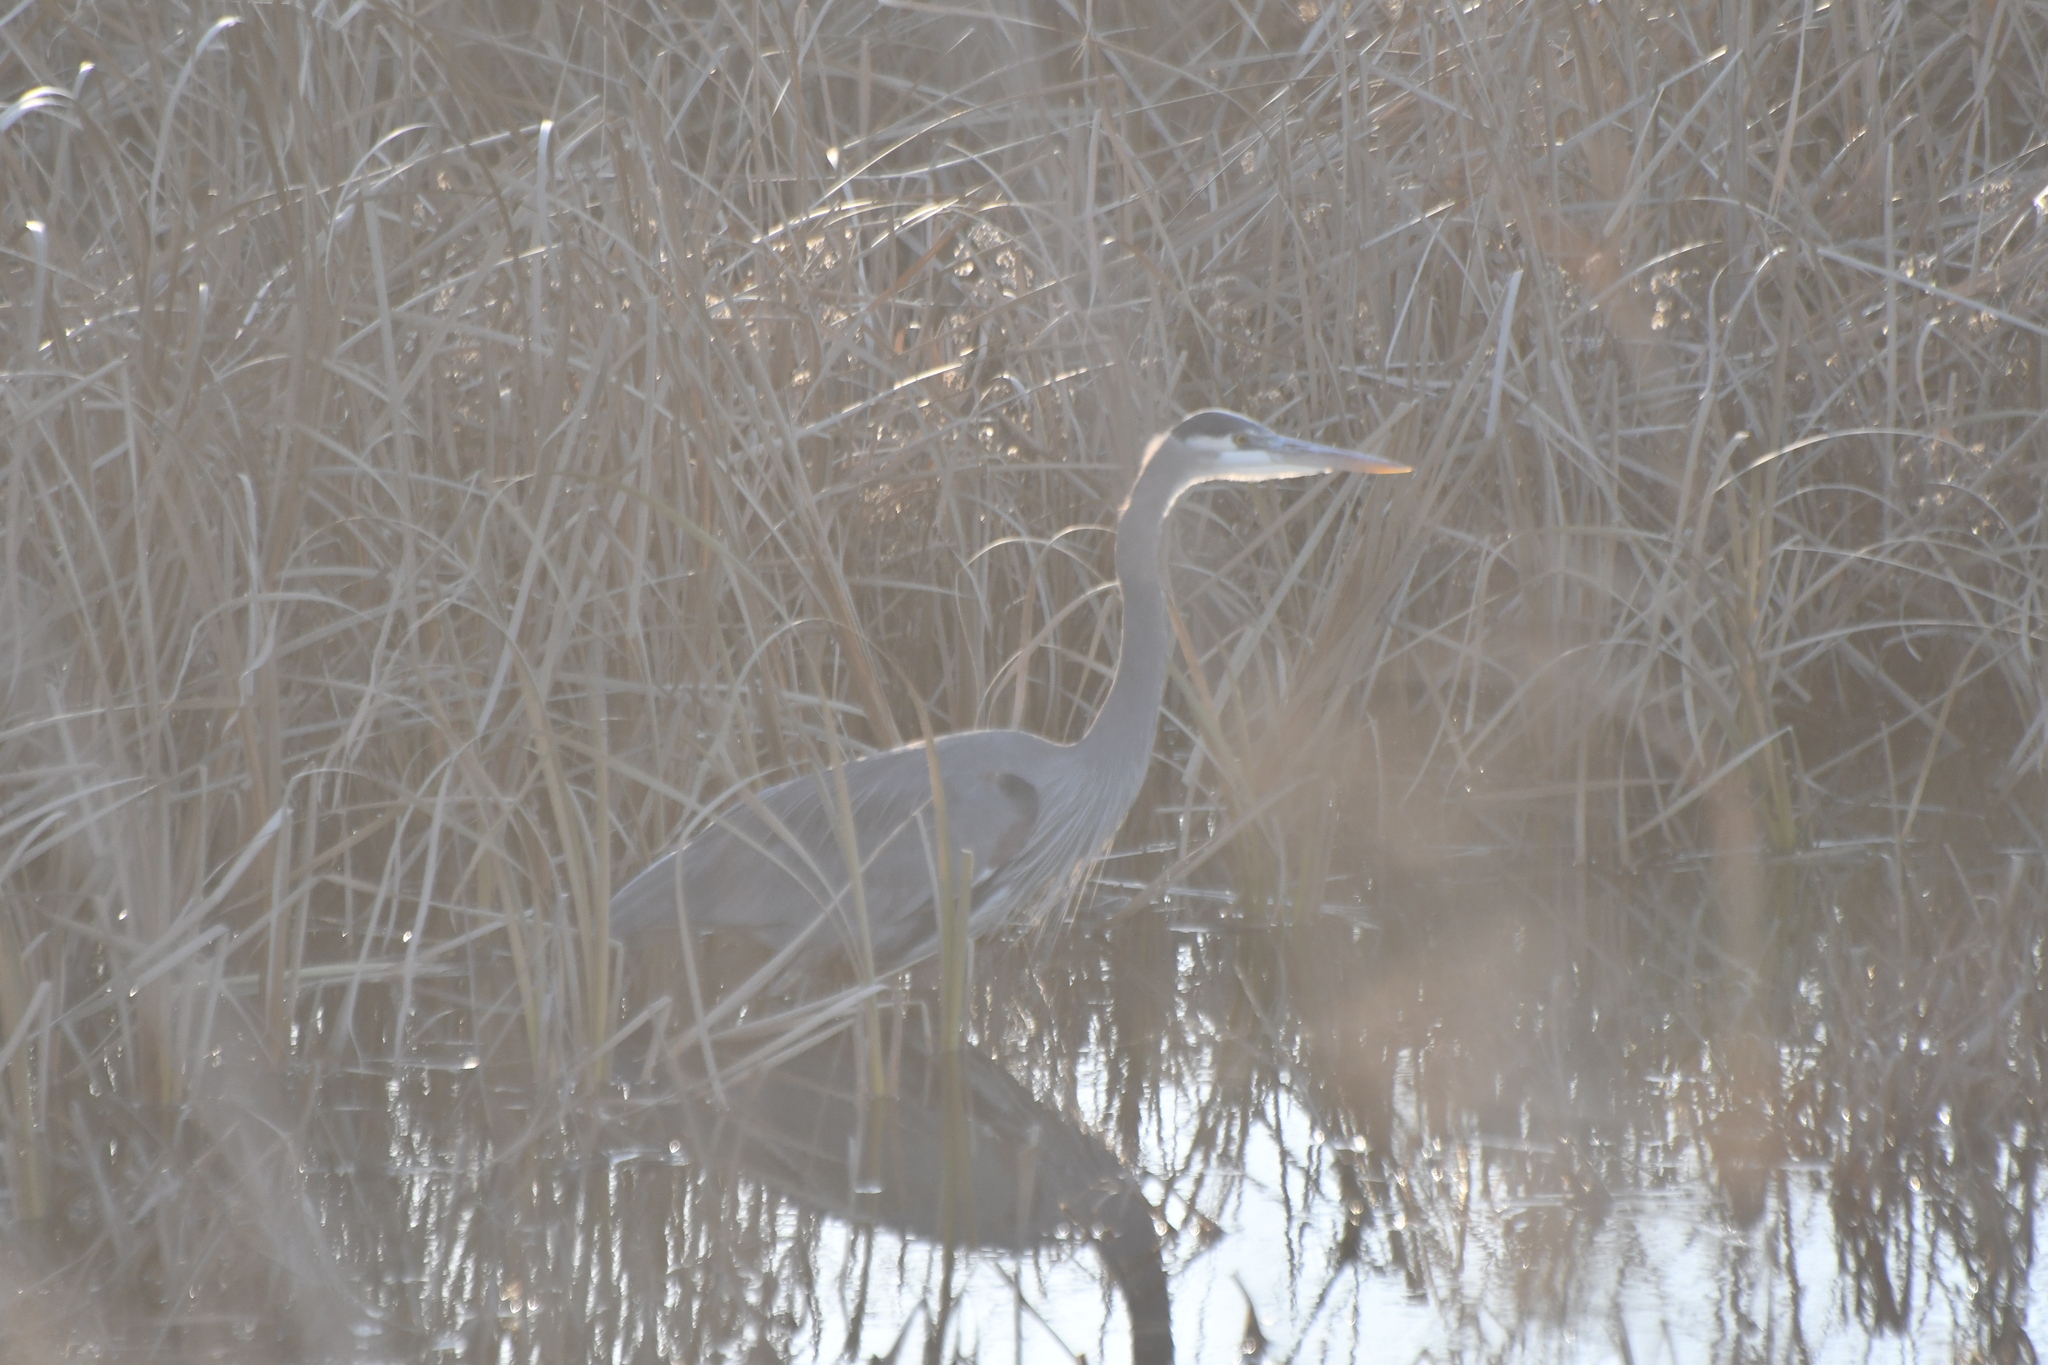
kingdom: Animalia
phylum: Chordata
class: Aves
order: Pelecaniformes
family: Ardeidae
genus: Ardea
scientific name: Ardea herodias
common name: Great blue heron
